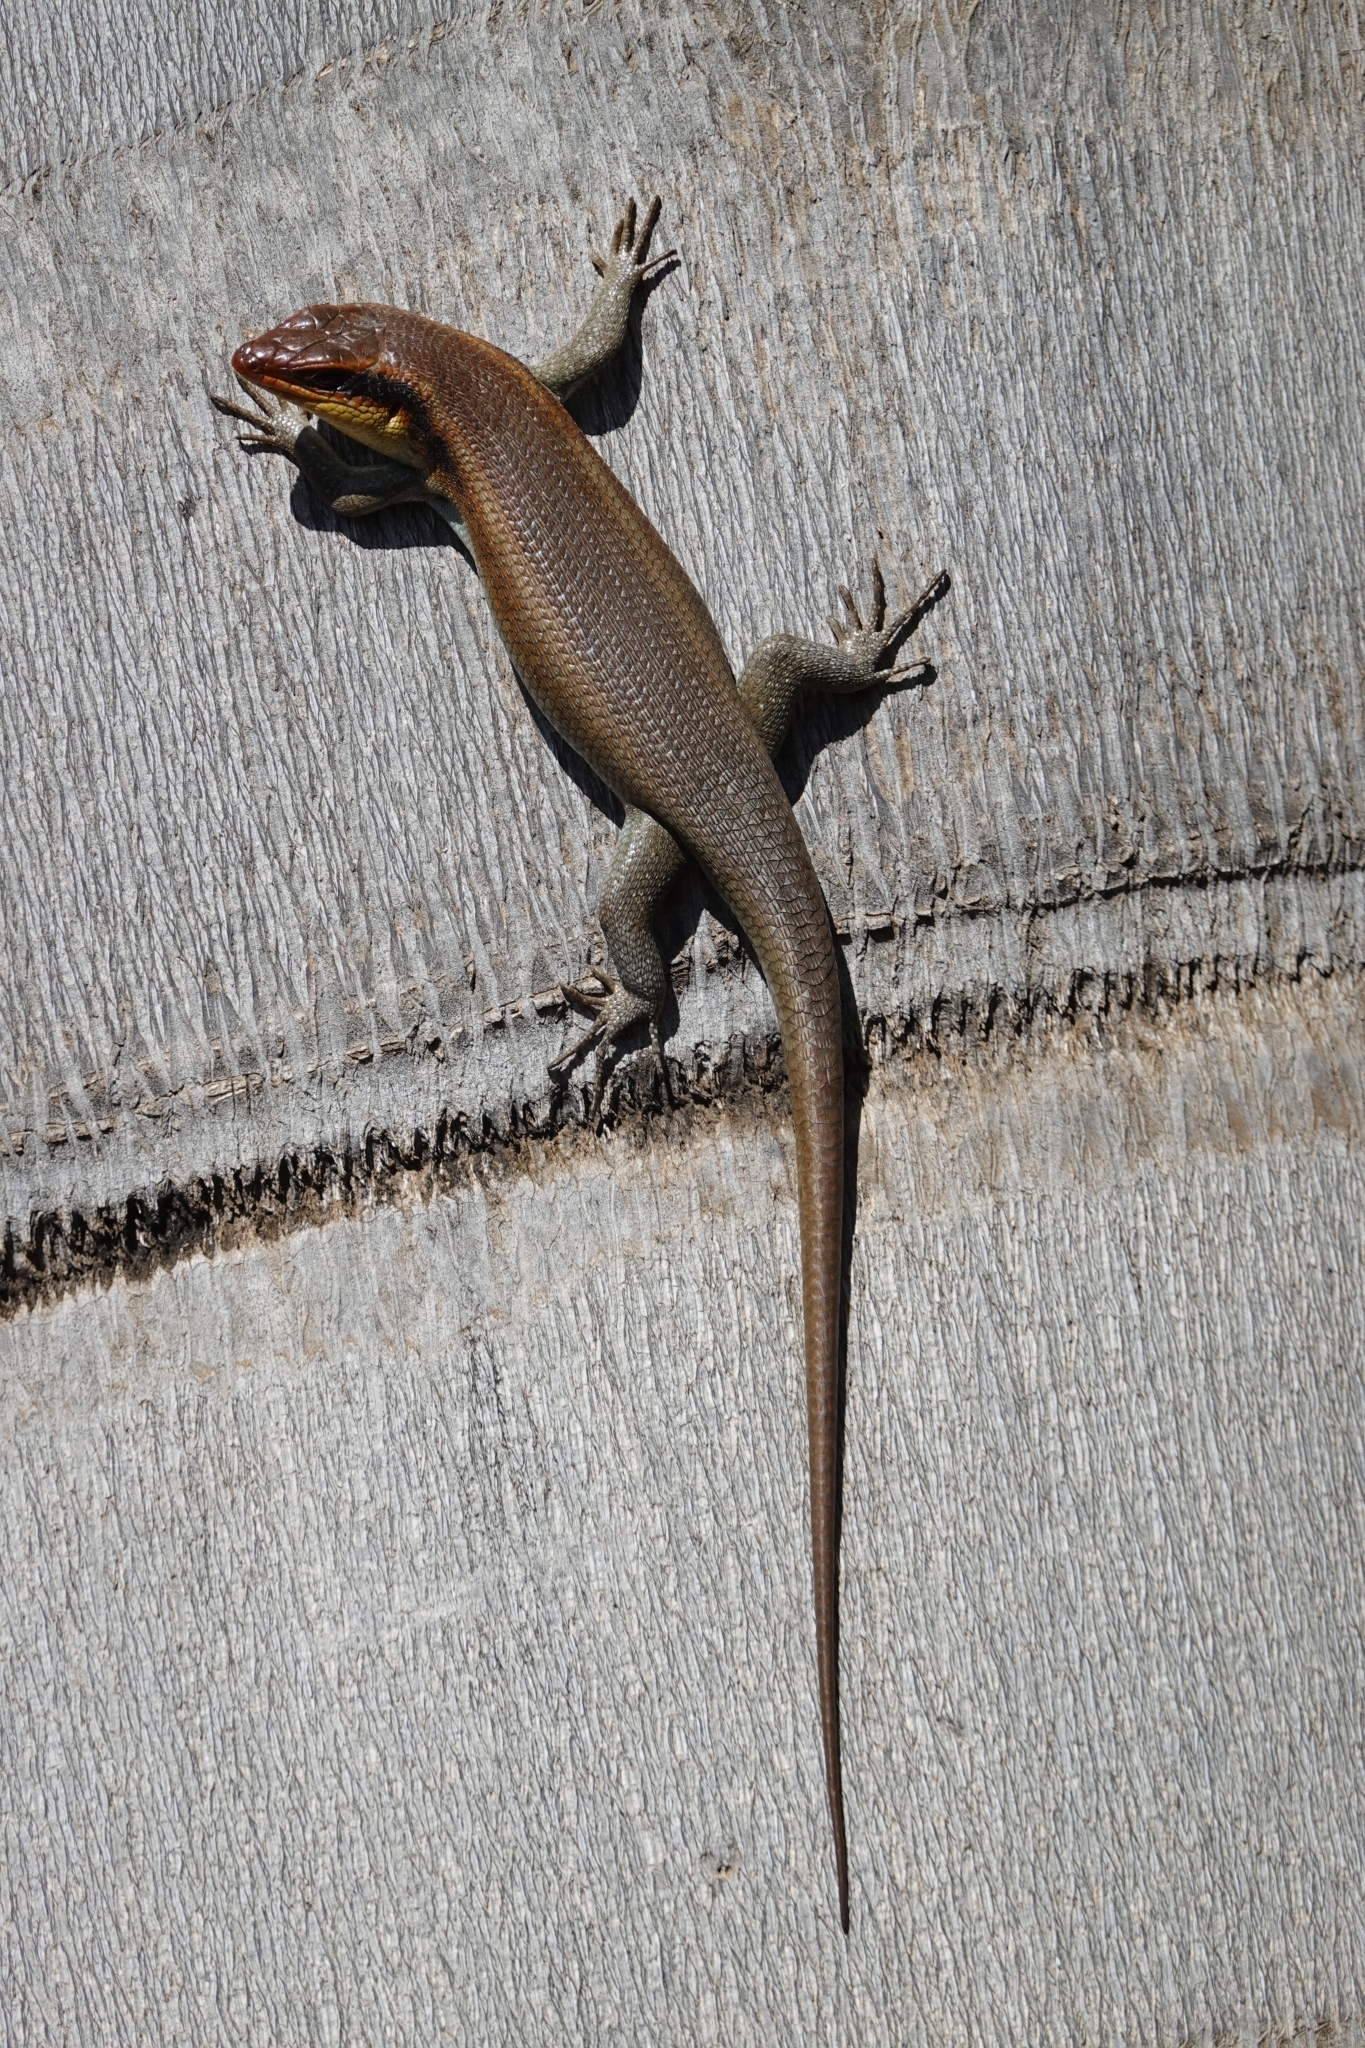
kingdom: Animalia
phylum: Chordata
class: Squamata
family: Scincidae
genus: Trachylepis
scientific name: Trachylepis wahlbergii
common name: Wahlberg’s striped skink
